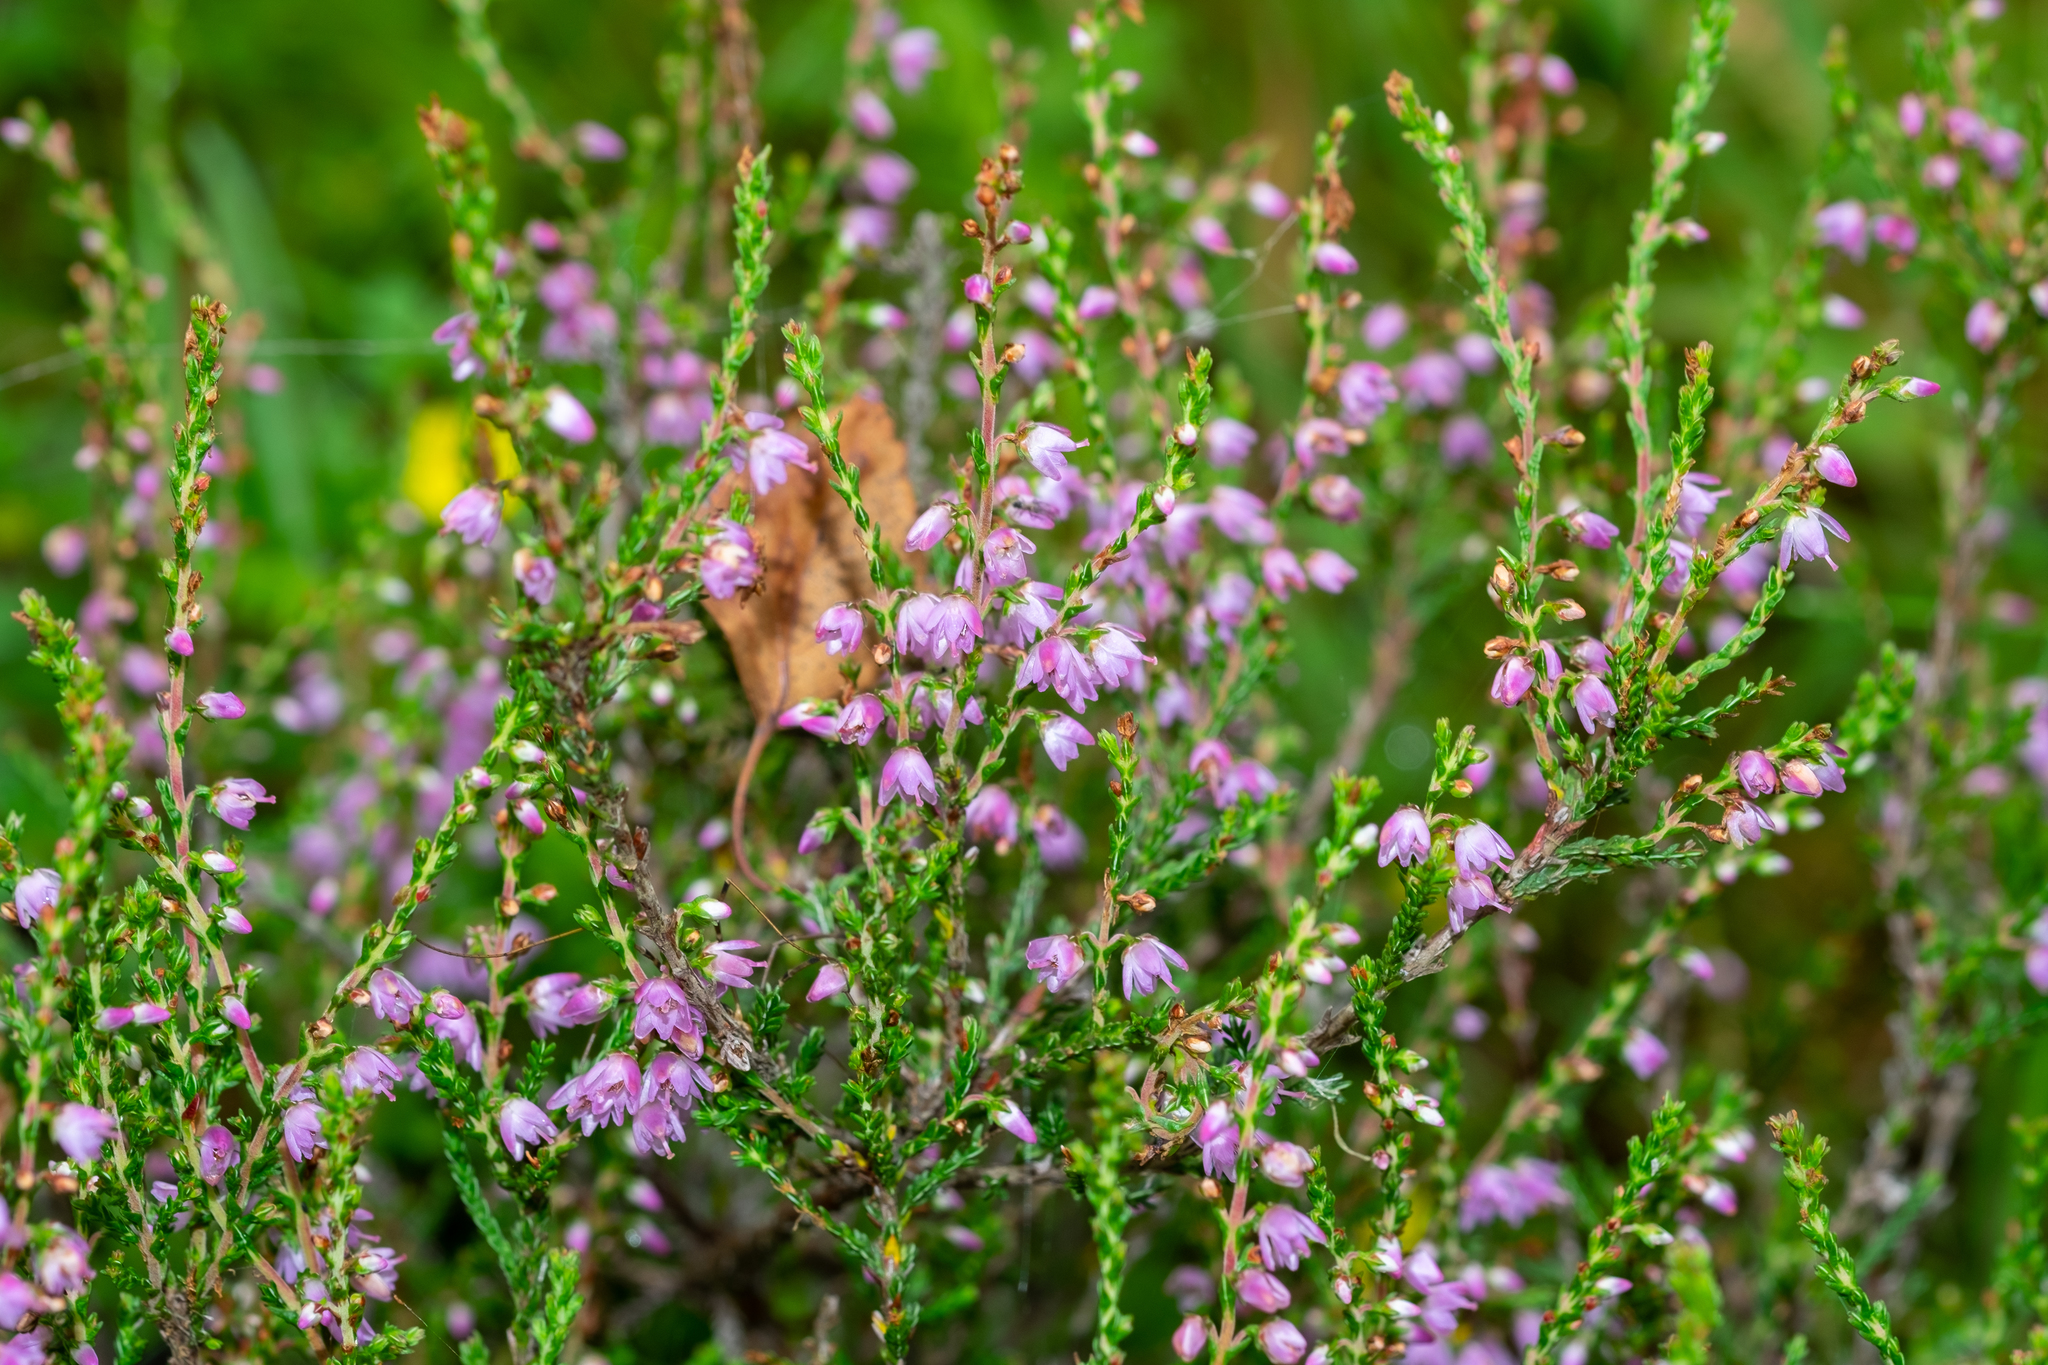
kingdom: Plantae
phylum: Tracheophyta
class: Magnoliopsida
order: Ericales
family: Ericaceae
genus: Calluna
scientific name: Calluna vulgaris
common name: Heather
